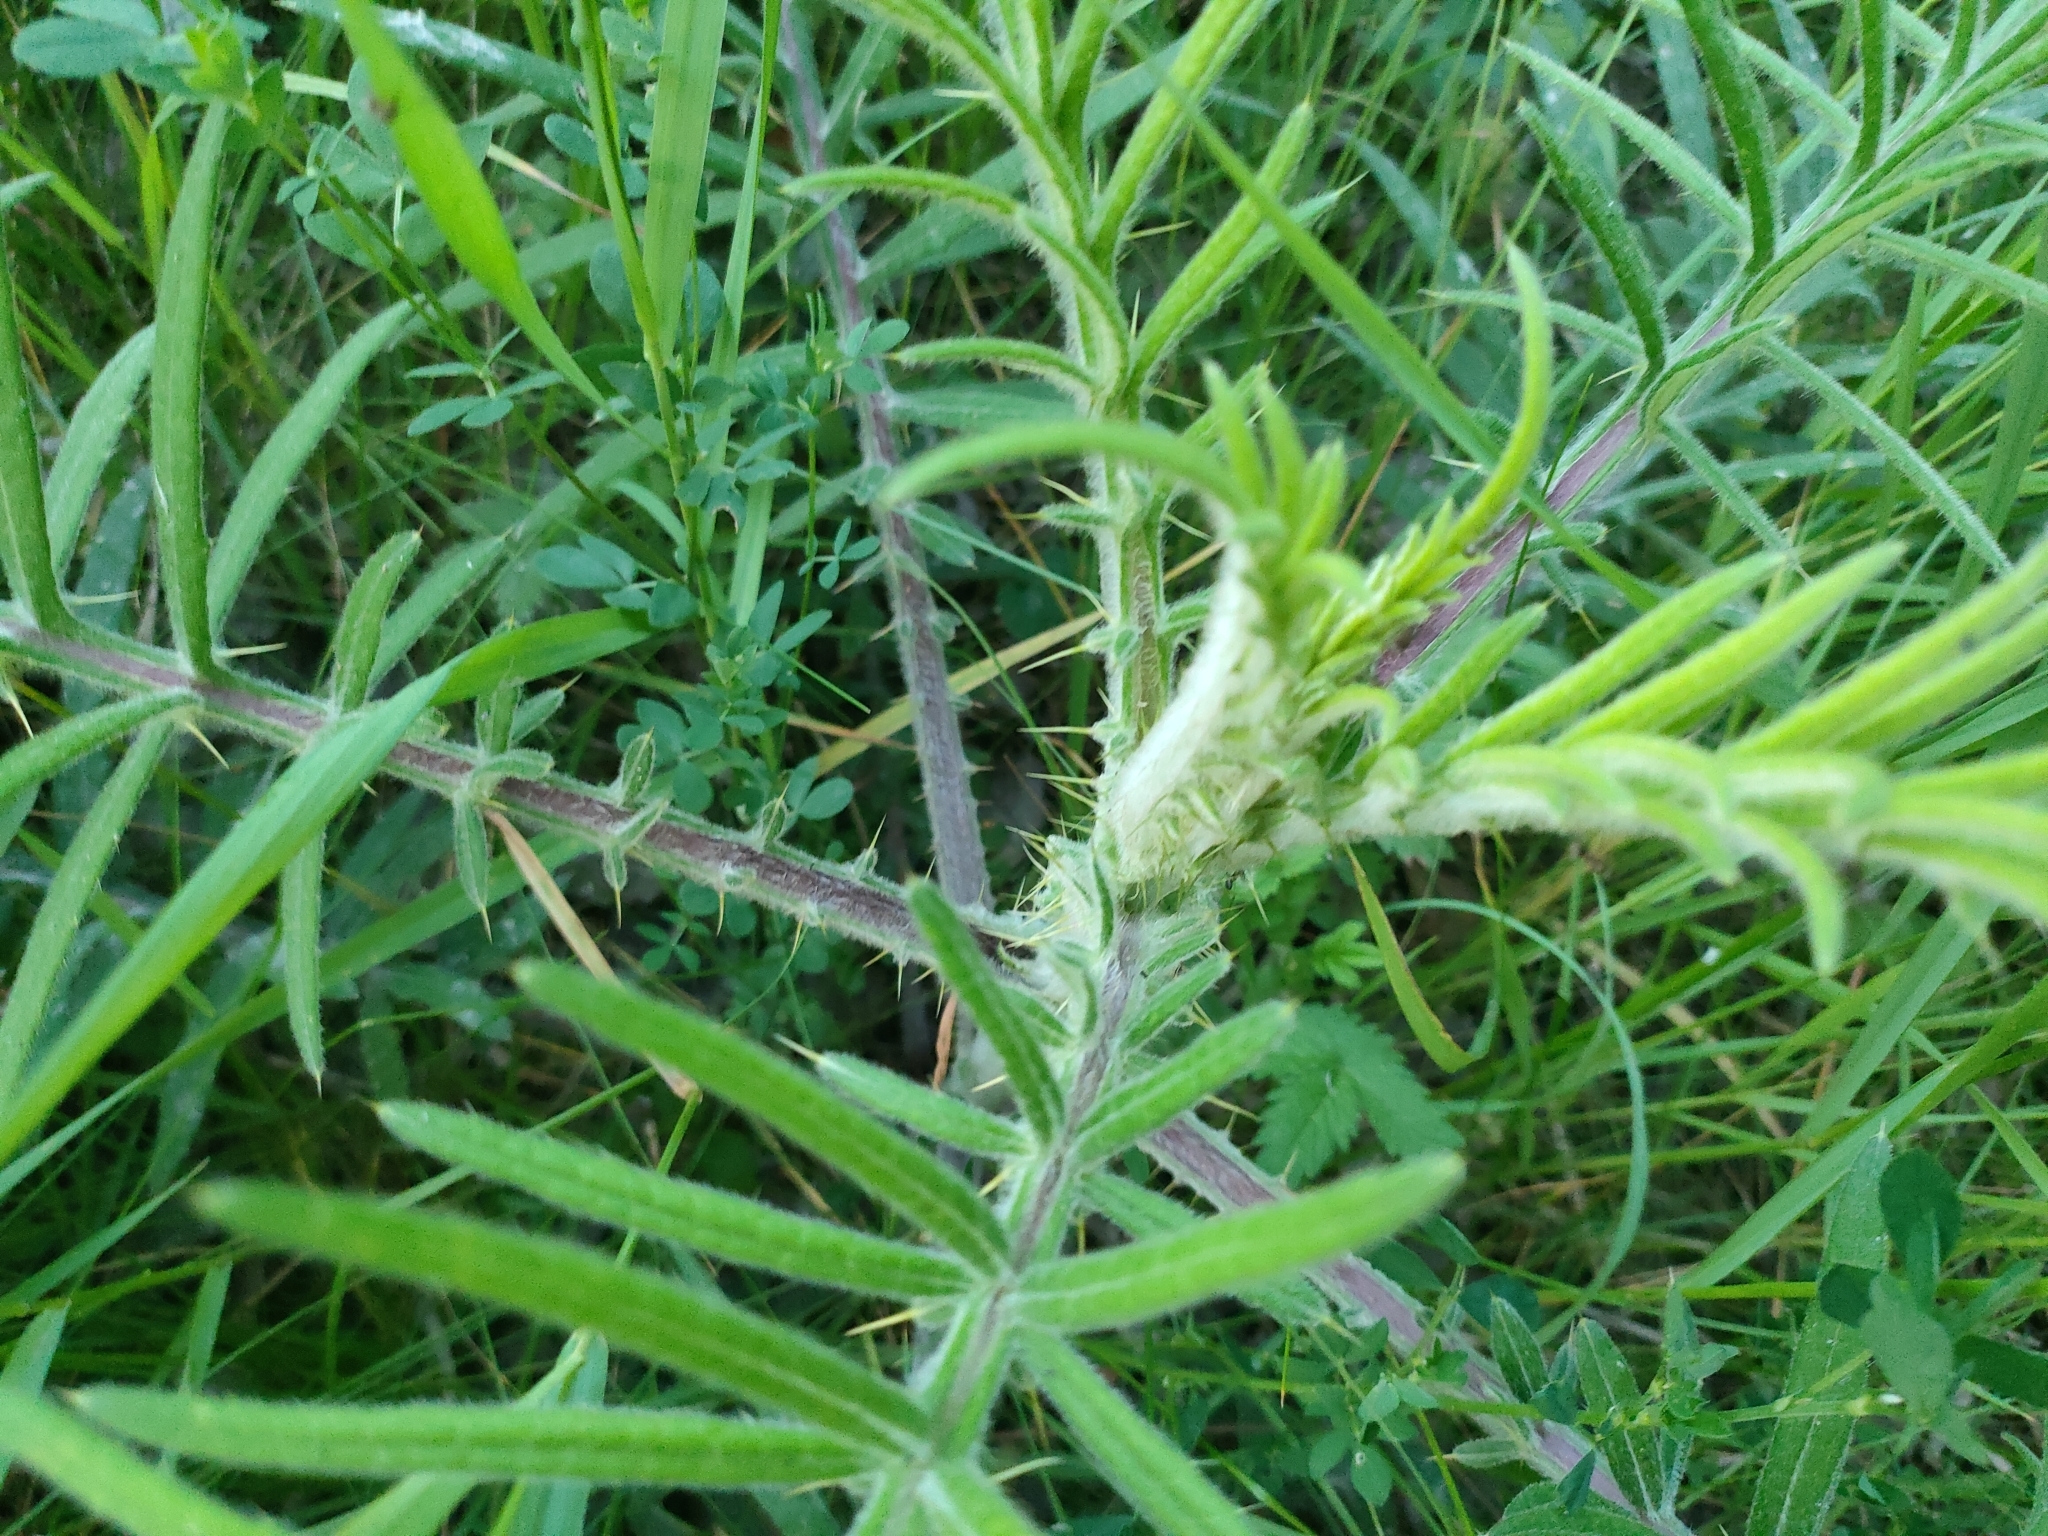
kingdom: Plantae
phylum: Tracheophyta
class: Magnoliopsida
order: Asterales
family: Asteraceae
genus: Lophiolepis
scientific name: Lophiolepis decussata
